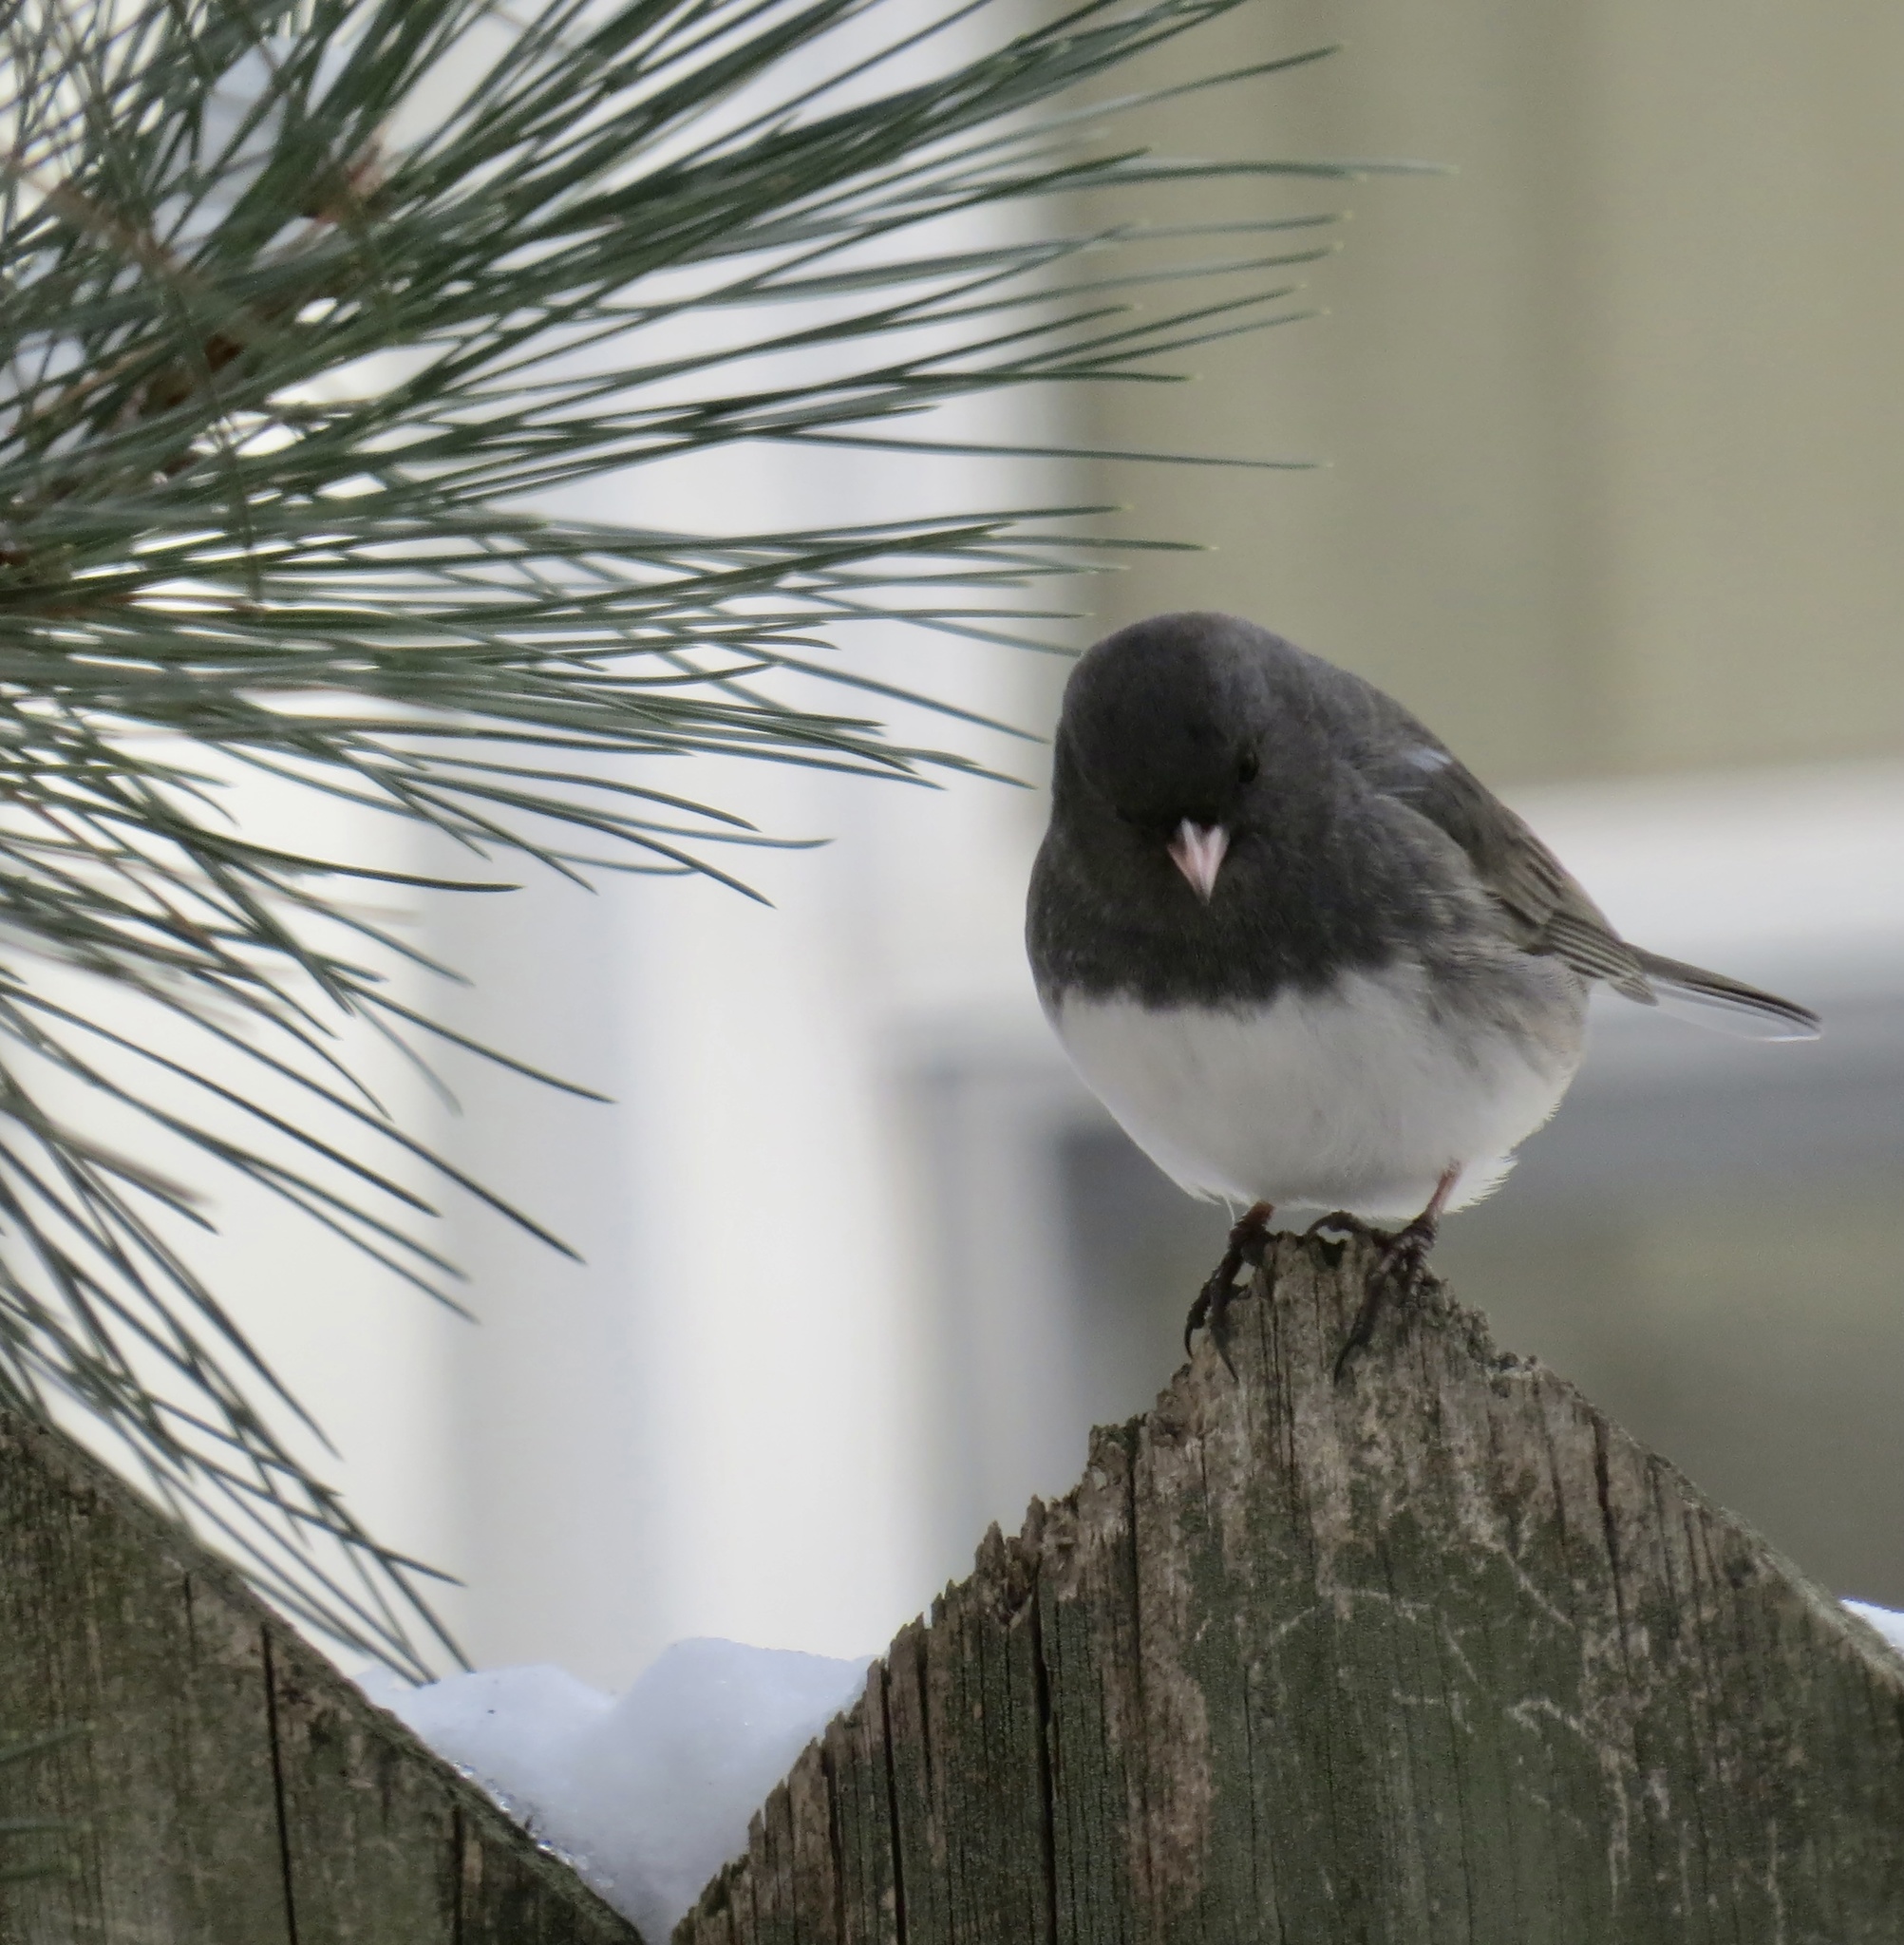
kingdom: Animalia
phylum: Chordata
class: Aves
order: Passeriformes
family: Passerellidae
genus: Junco
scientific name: Junco hyemalis
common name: Dark-eyed junco
